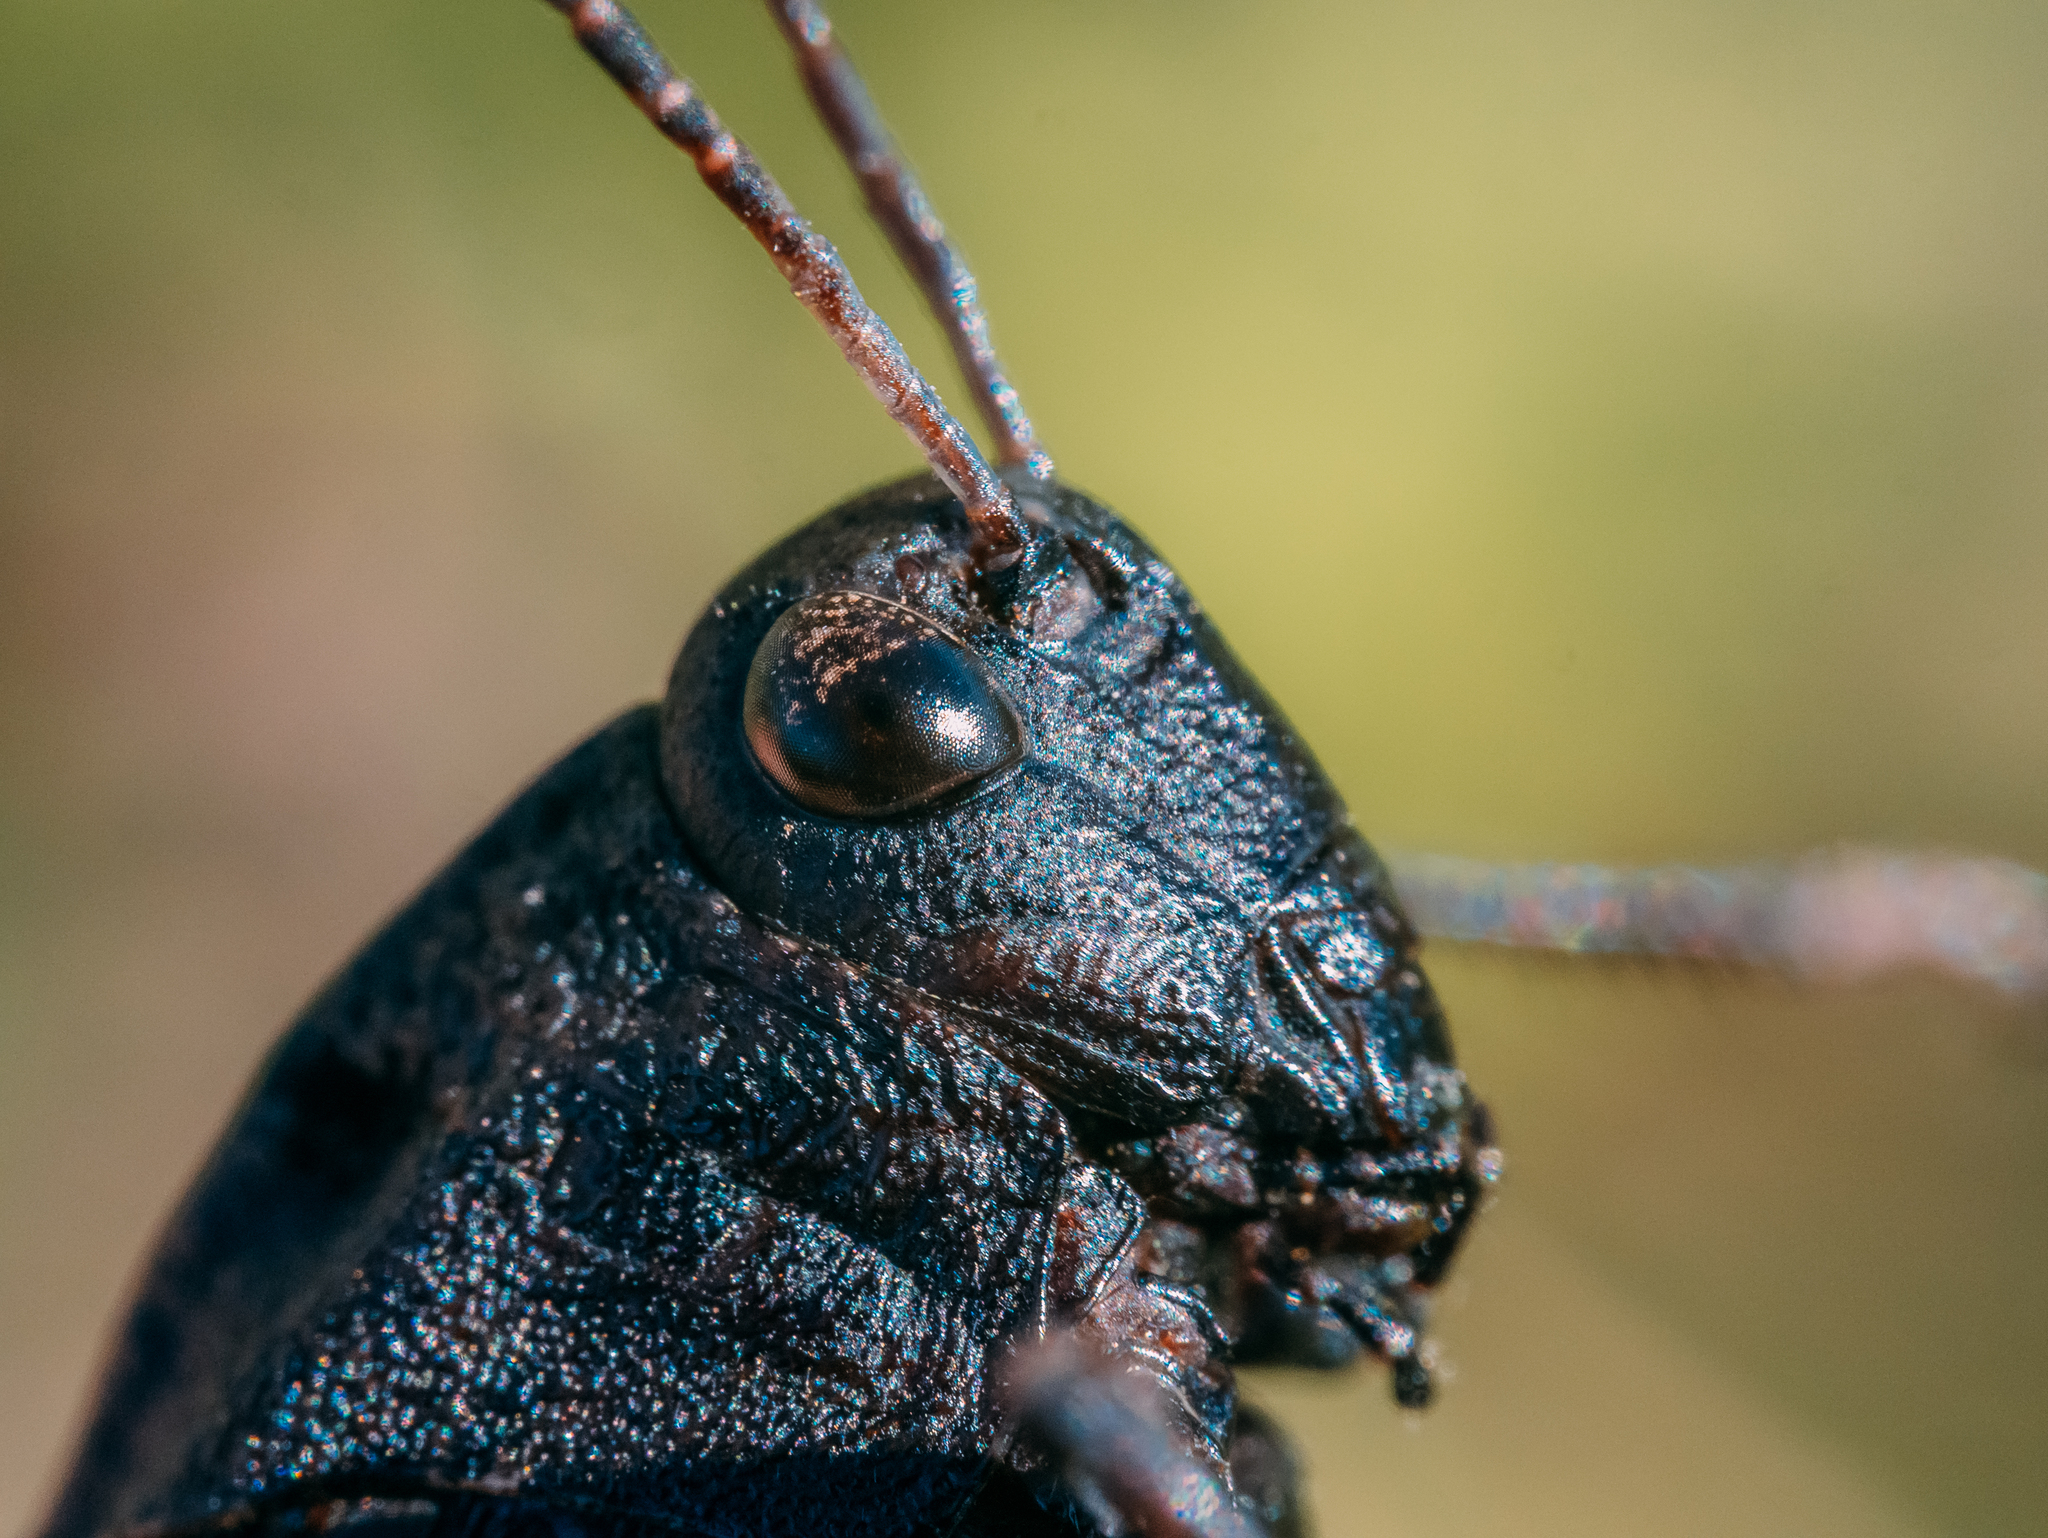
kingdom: Animalia
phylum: Arthropoda
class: Insecta
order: Orthoptera
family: Acrididae
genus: Psophus
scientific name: Psophus stridulus
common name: Rattle grasshopper
